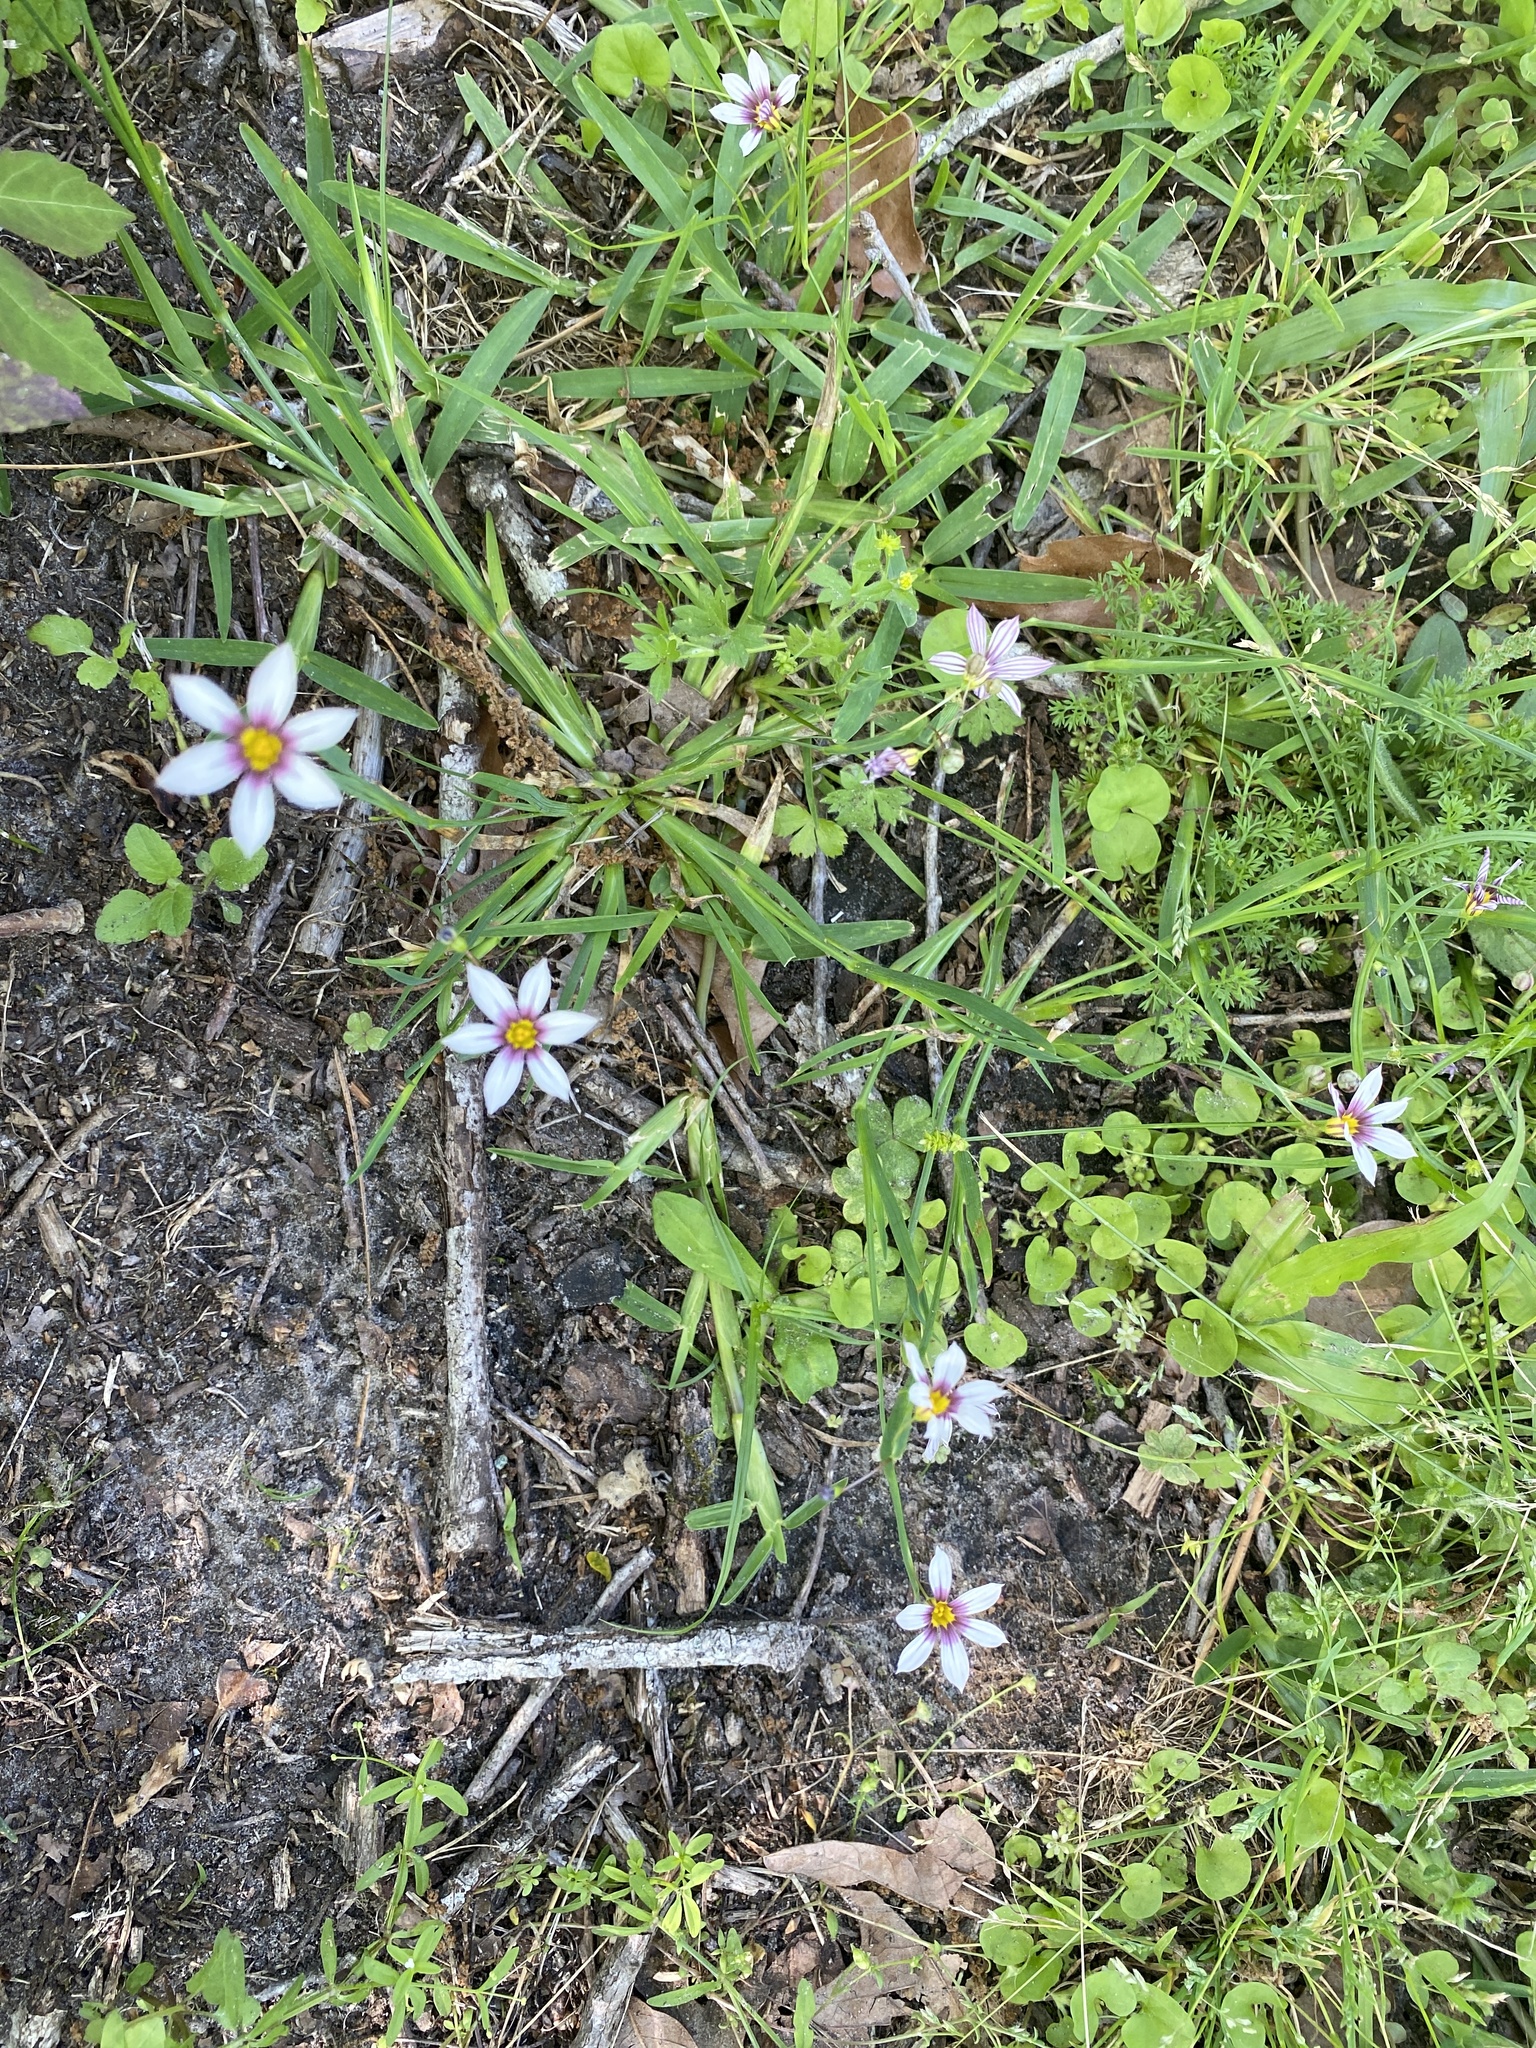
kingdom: Plantae
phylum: Tracheophyta
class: Liliopsida
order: Asparagales
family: Iridaceae
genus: Sisyrinchium
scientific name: Sisyrinchium micranthum
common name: Bermuda pigroot
